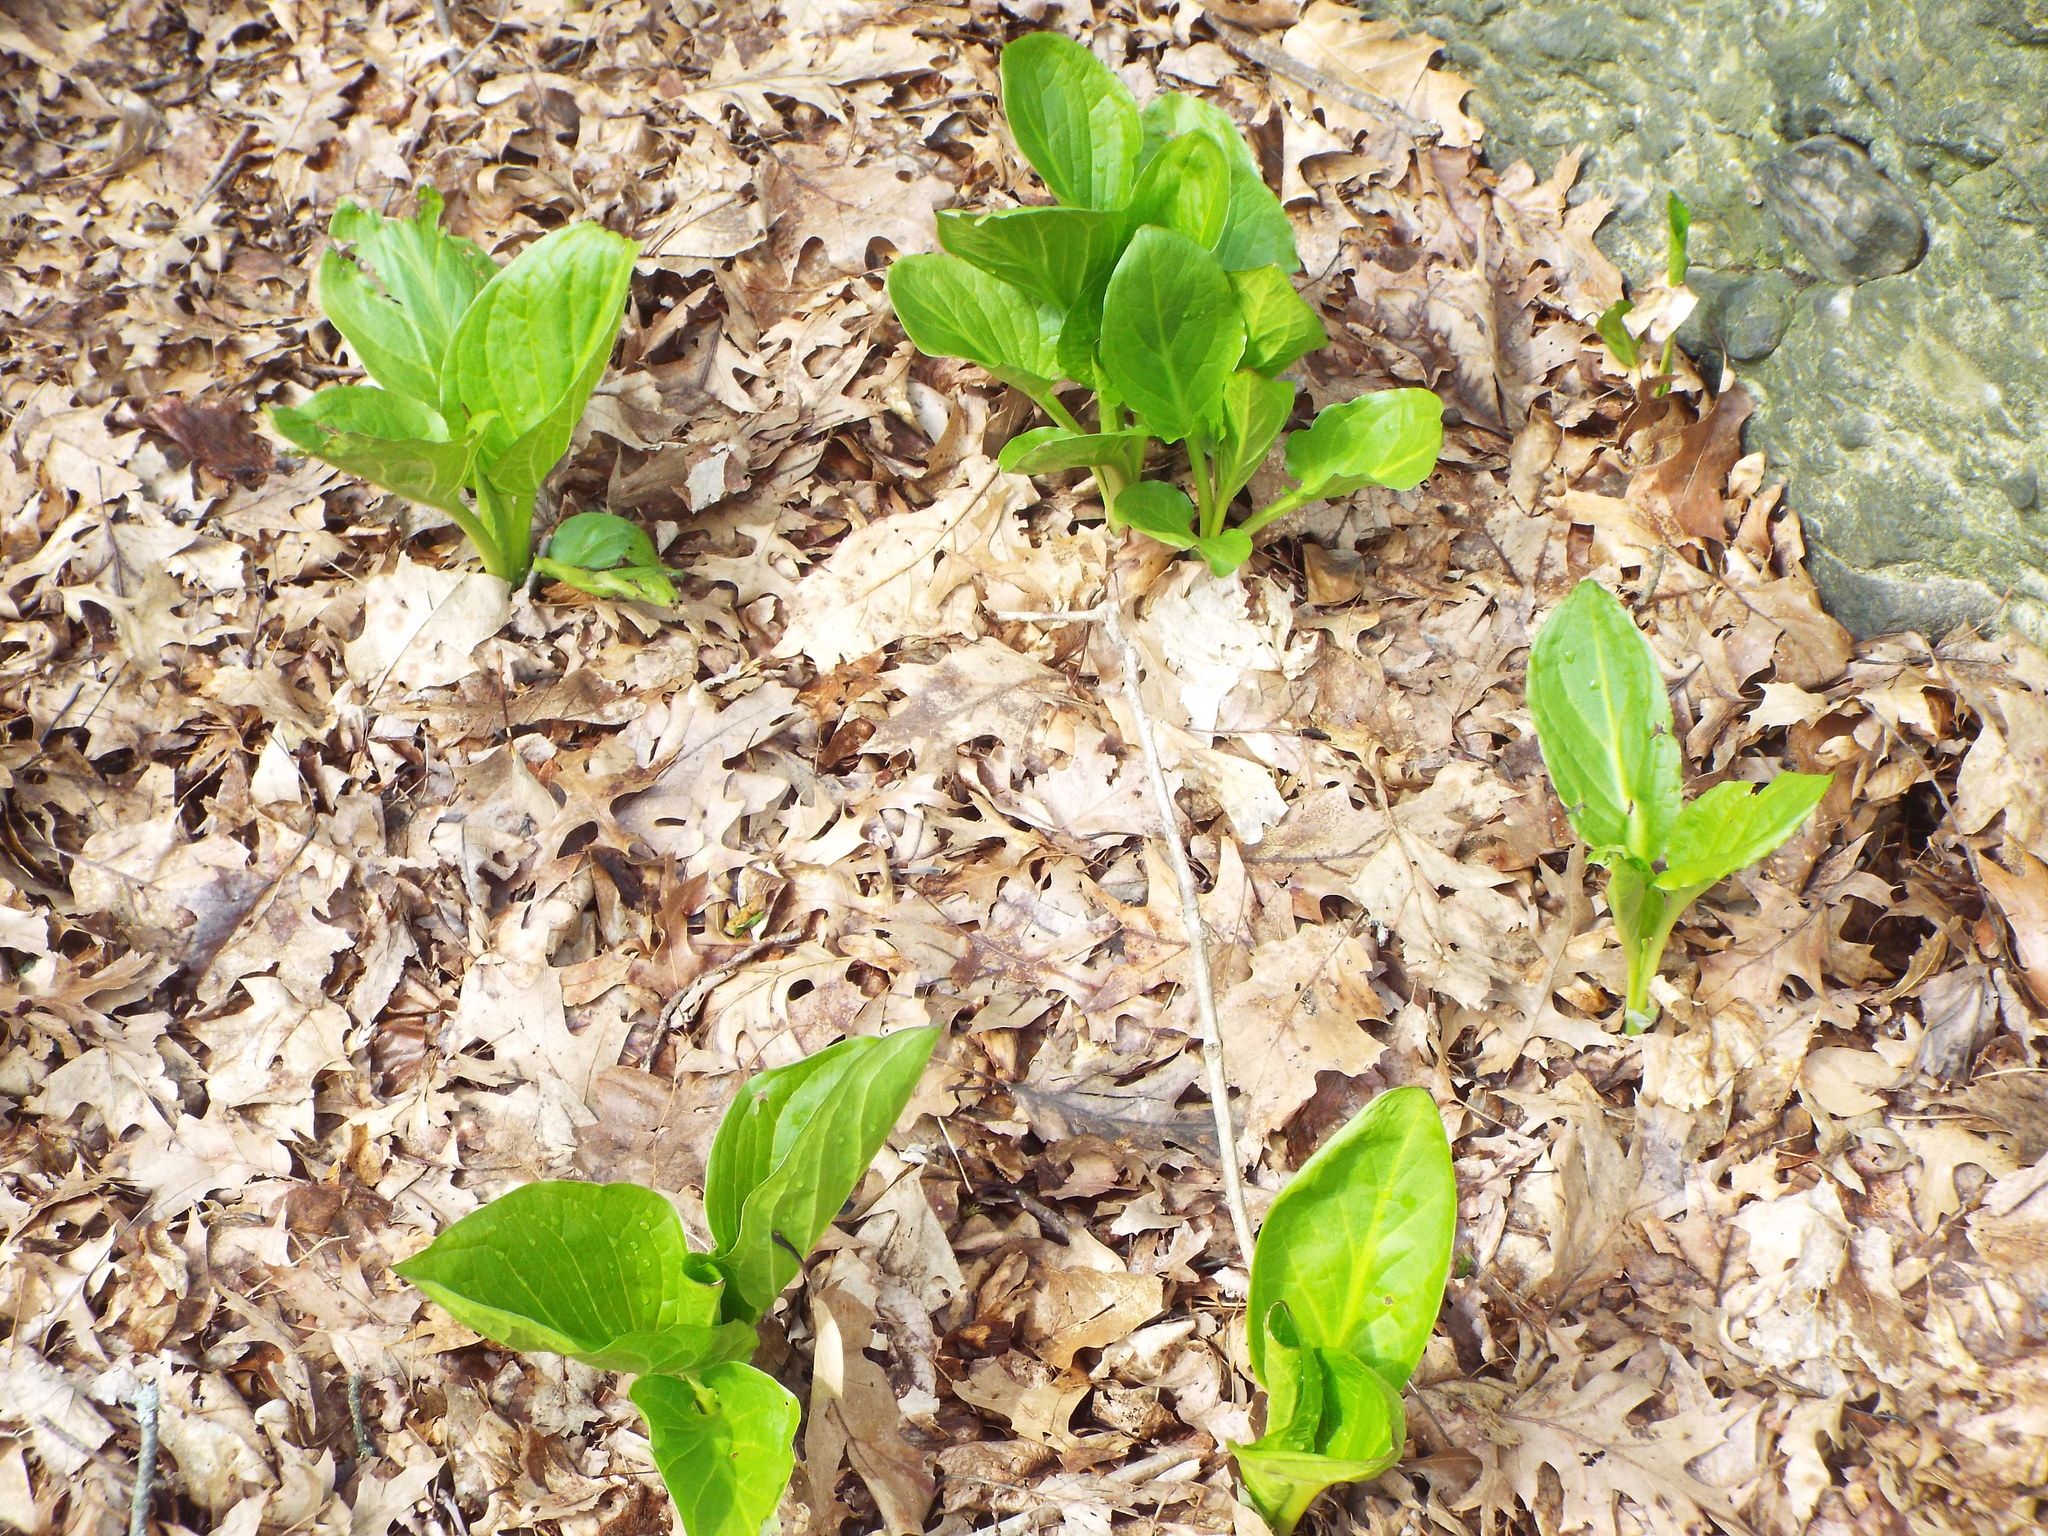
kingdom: Plantae
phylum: Tracheophyta
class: Liliopsida
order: Alismatales
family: Araceae
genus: Symplocarpus
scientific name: Symplocarpus foetidus
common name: Eastern skunk cabbage
